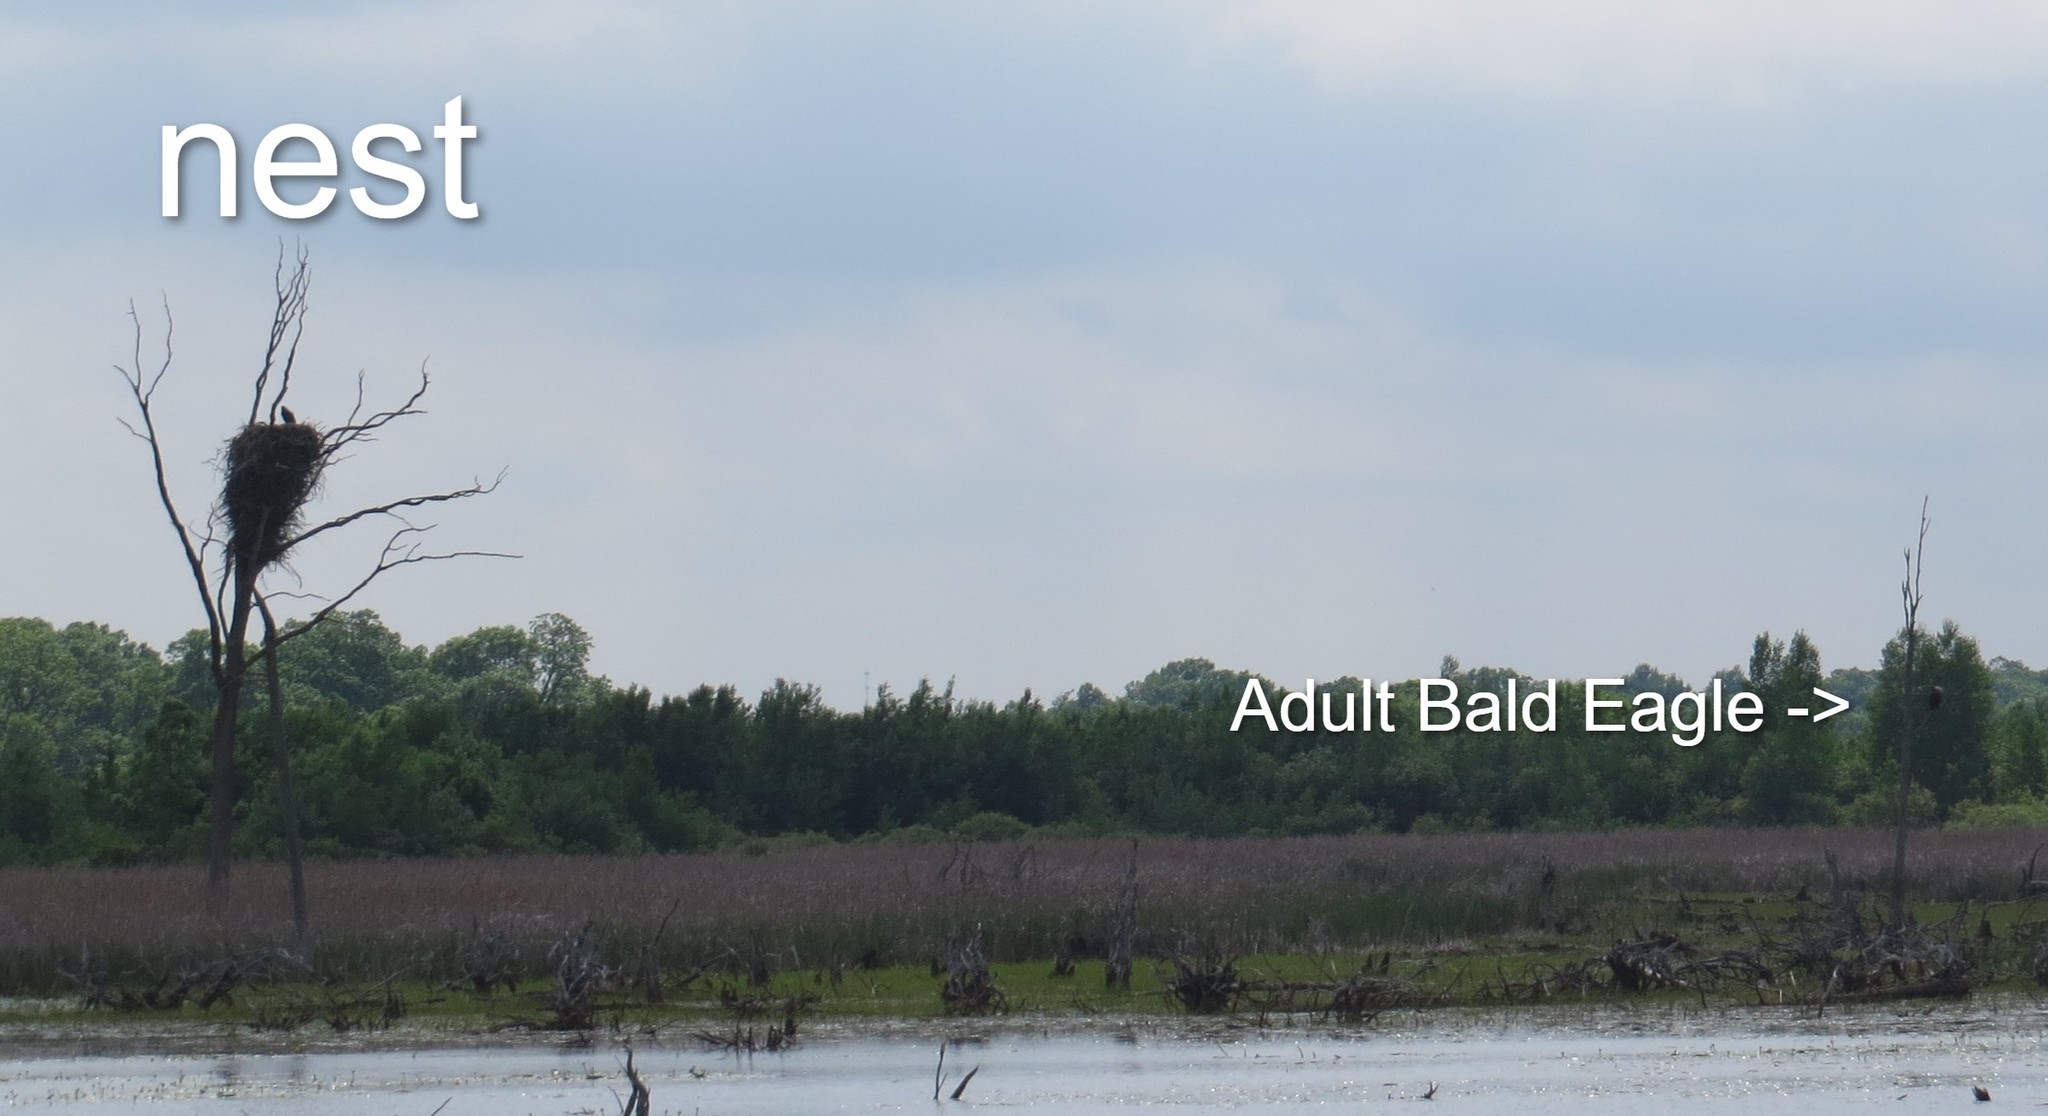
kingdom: Animalia
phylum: Chordata
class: Aves
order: Accipitriformes
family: Accipitridae
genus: Haliaeetus
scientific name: Haliaeetus leucocephalus
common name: Bald eagle
